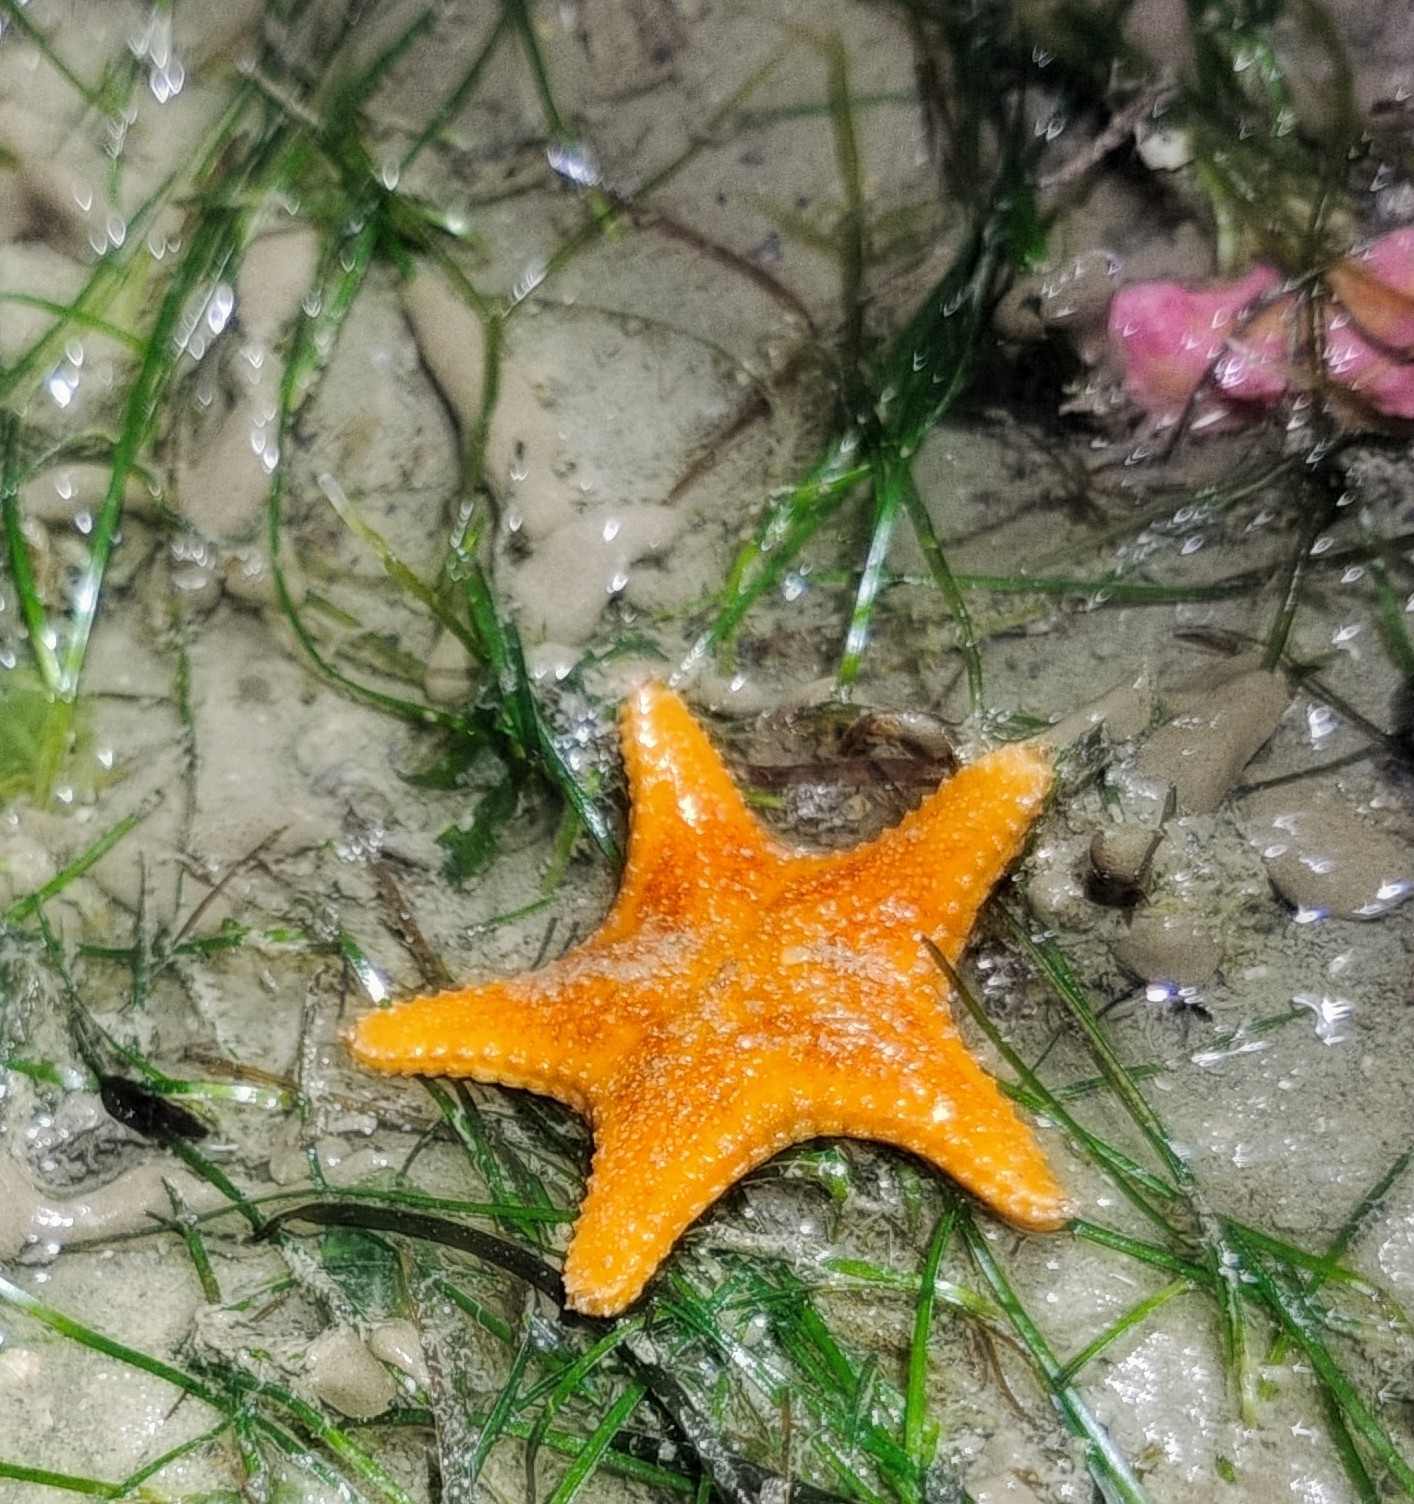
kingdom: Animalia
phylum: Echinodermata
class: Asteroidea
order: Valvatida
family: Oreasteridae
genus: Anthenea
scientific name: Anthenea aspera
